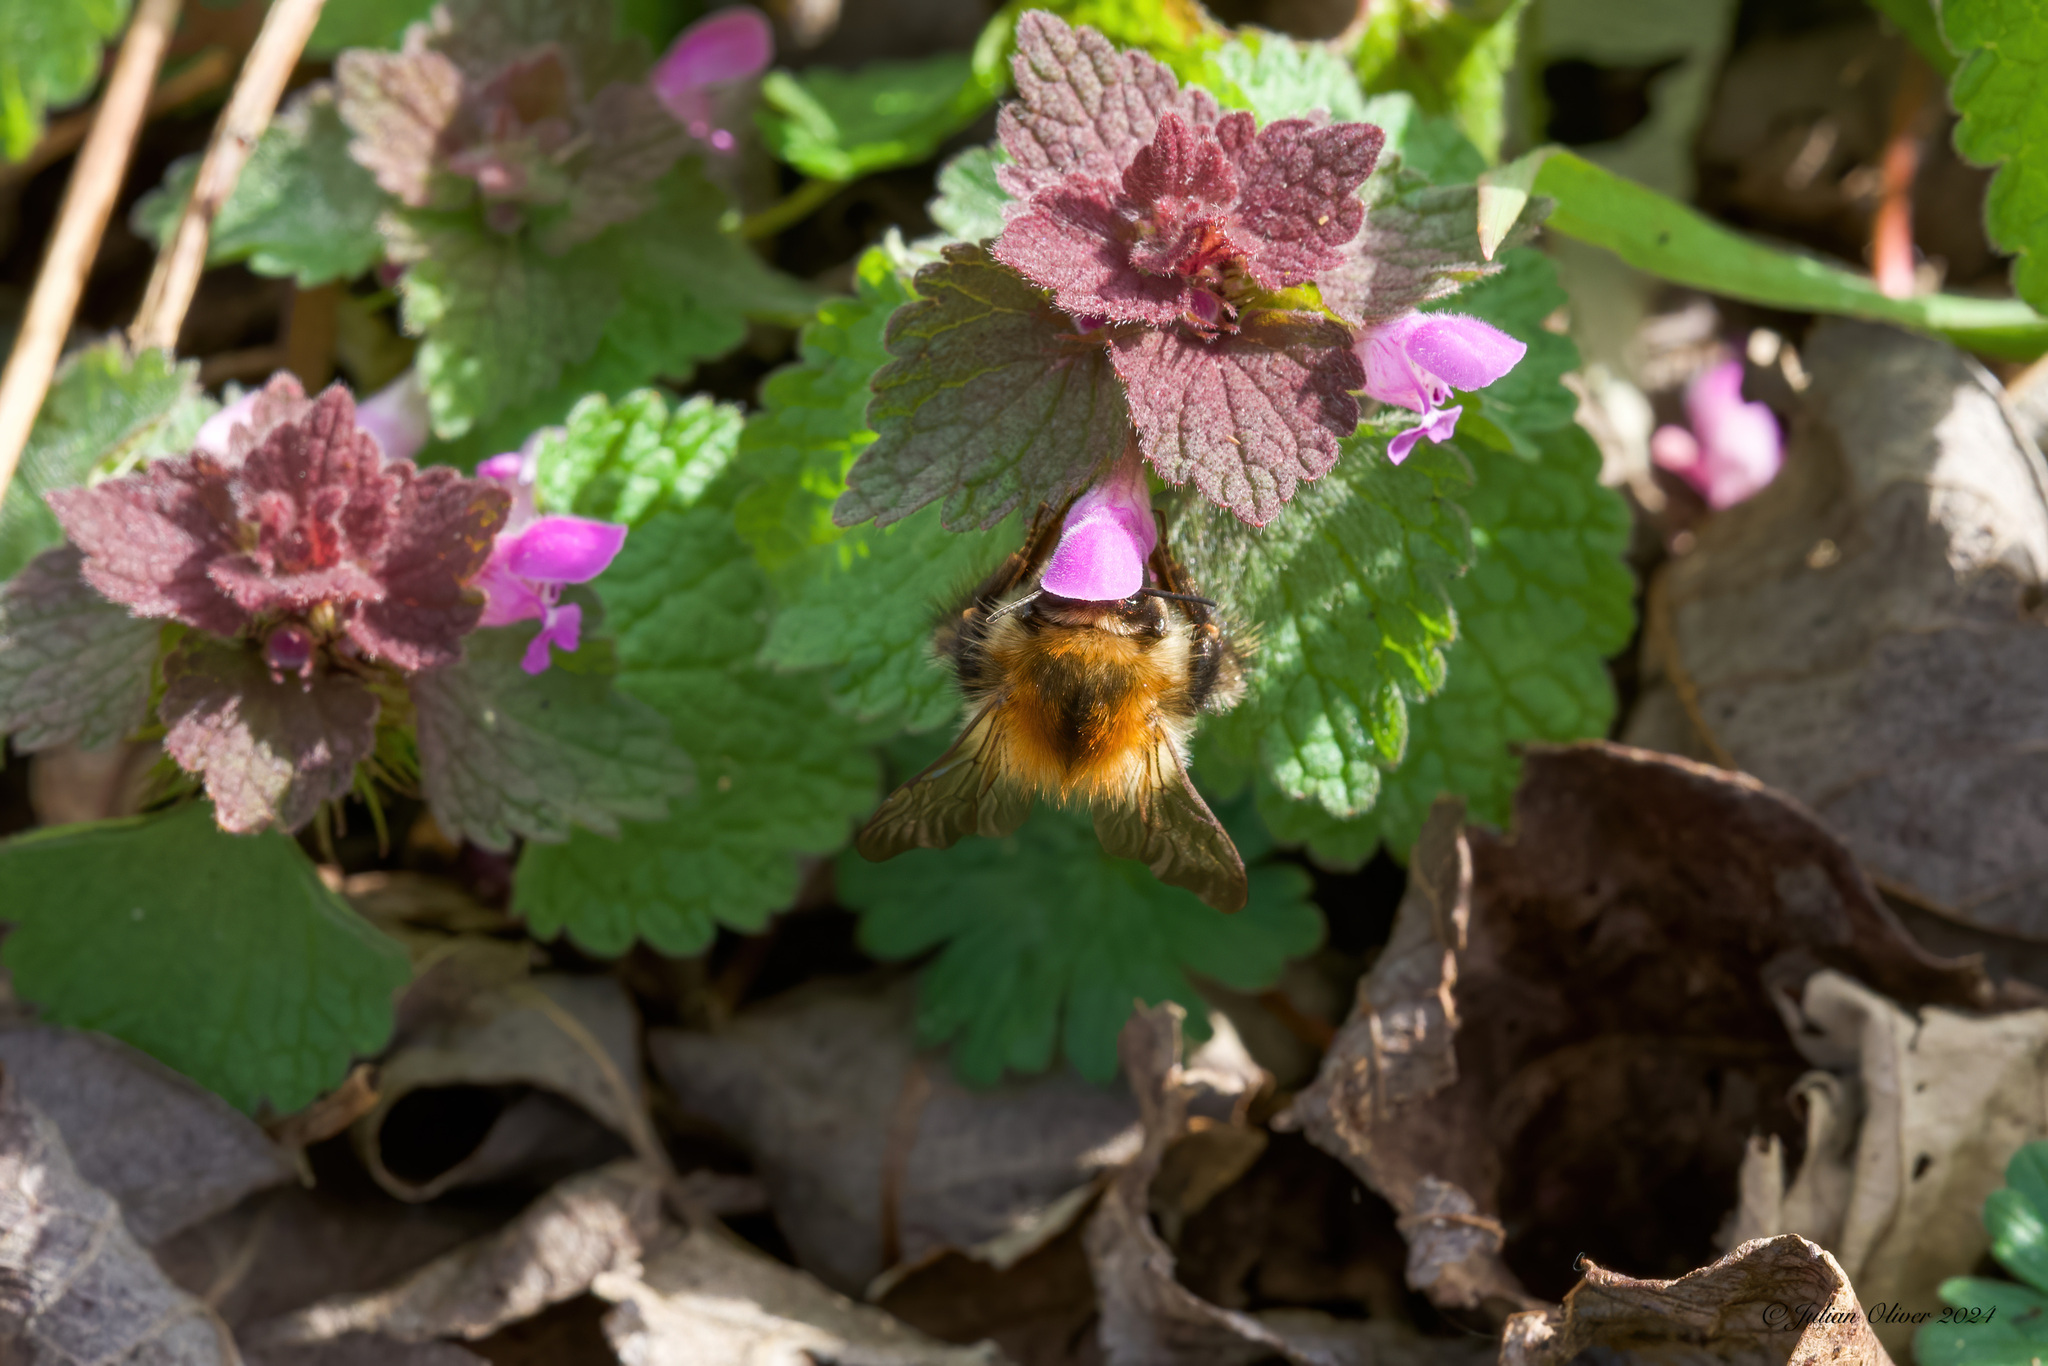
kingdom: Animalia
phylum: Arthropoda
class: Insecta
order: Hymenoptera
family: Apidae
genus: Bombus
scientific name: Bombus pascuorum
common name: Common carder bee
